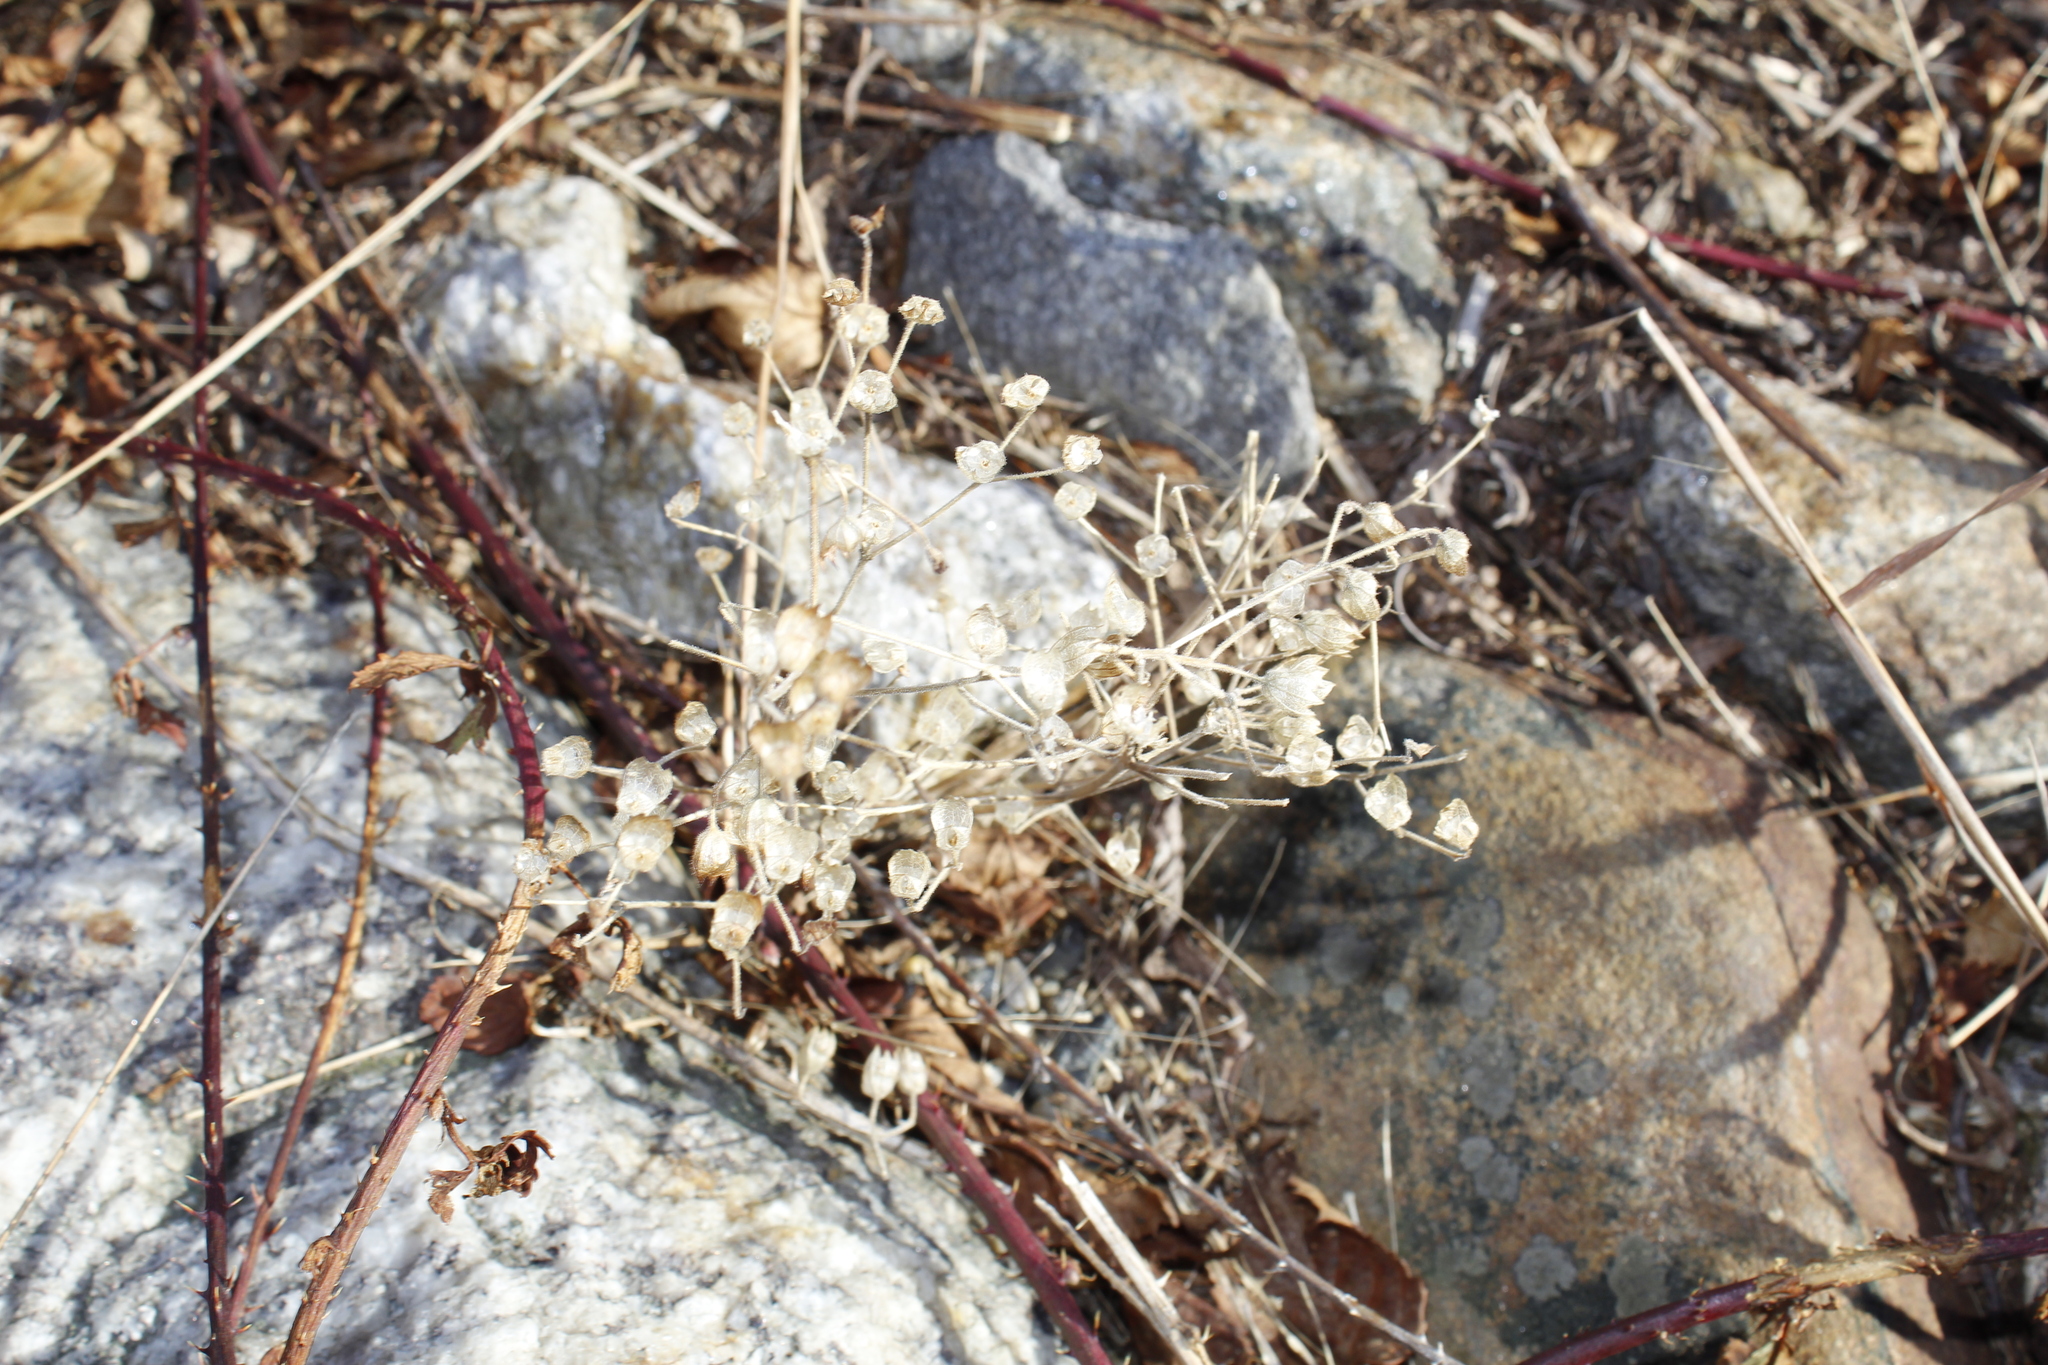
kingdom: Plantae
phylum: Tracheophyta
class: Magnoliopsida
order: Lamiales
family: Lamiaceae
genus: Trichostema
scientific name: Trichostema dichotomum
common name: Bastard pennyroyal
